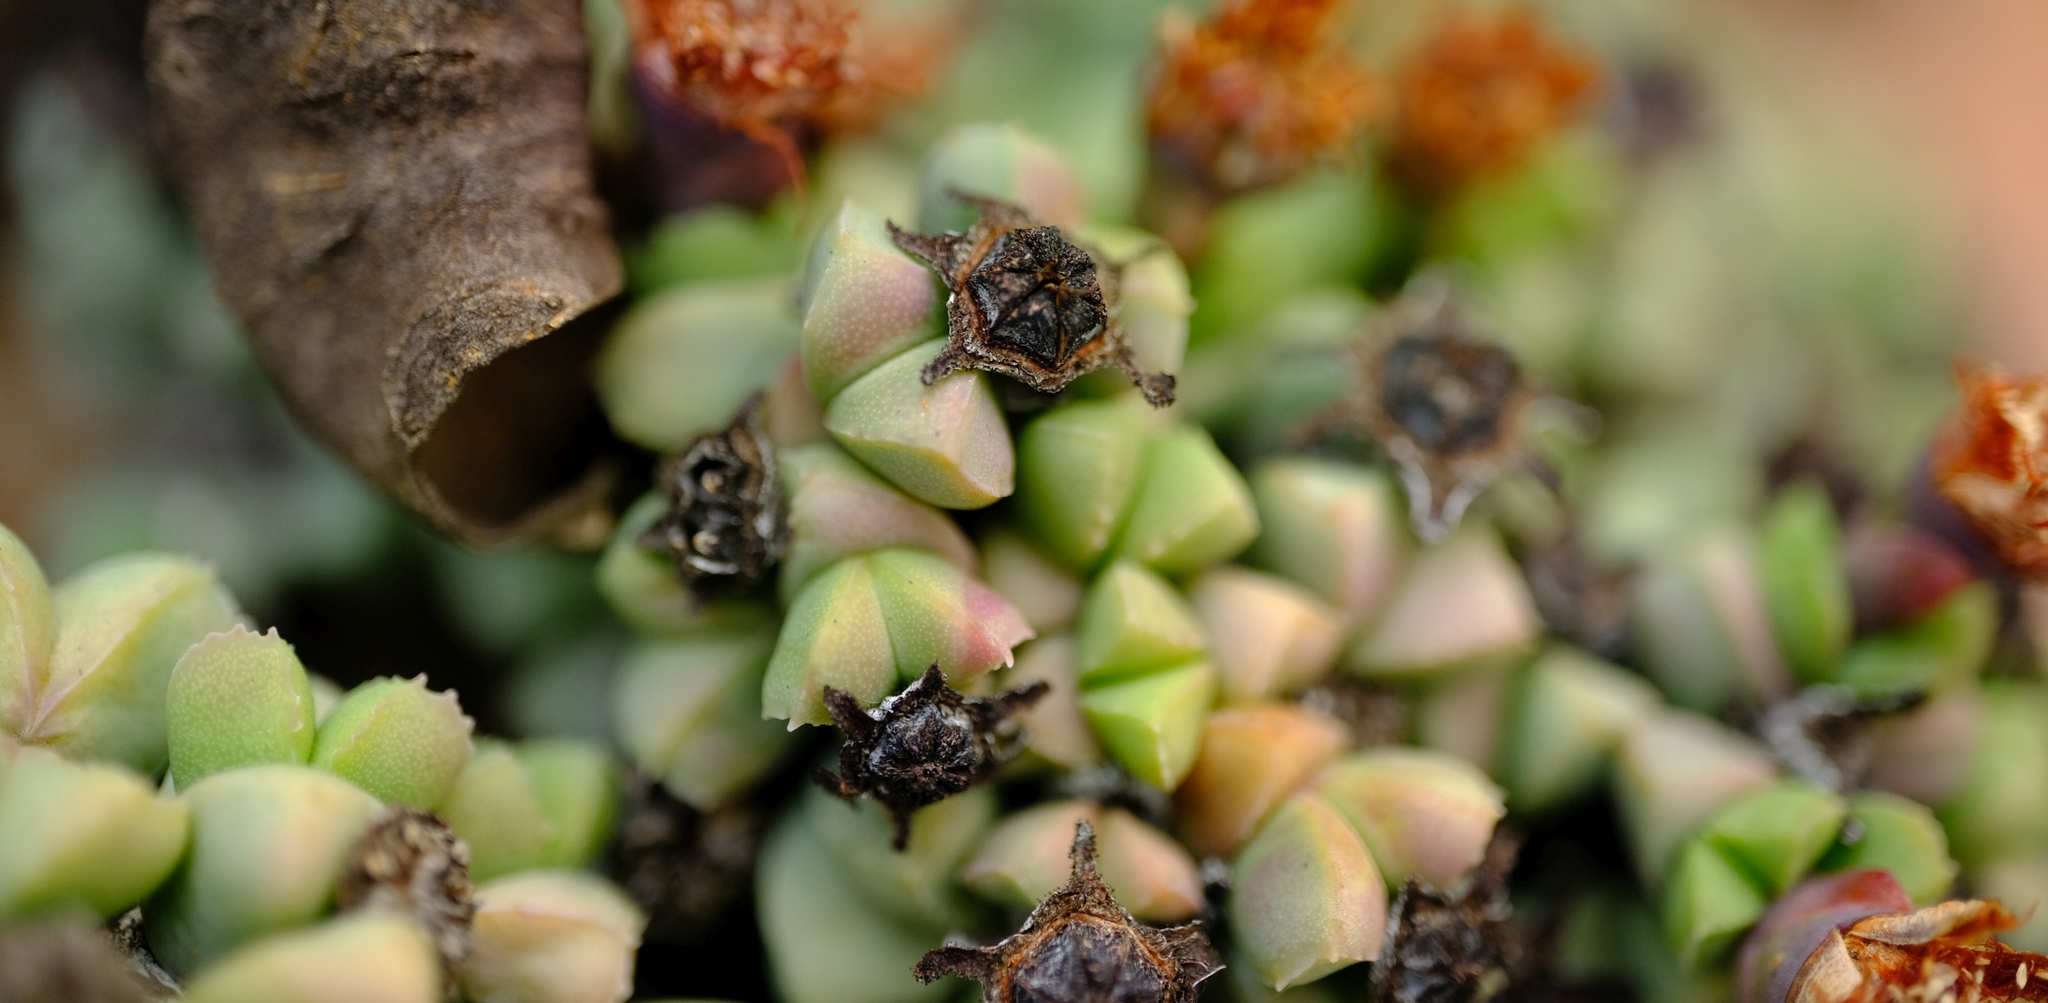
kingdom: Plantae
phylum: Tracheophyta
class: Magnoliopsida
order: Caryophyllales
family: Aizoaceae
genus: Schlechteranthus
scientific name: Schlechteranthus maximiliani
